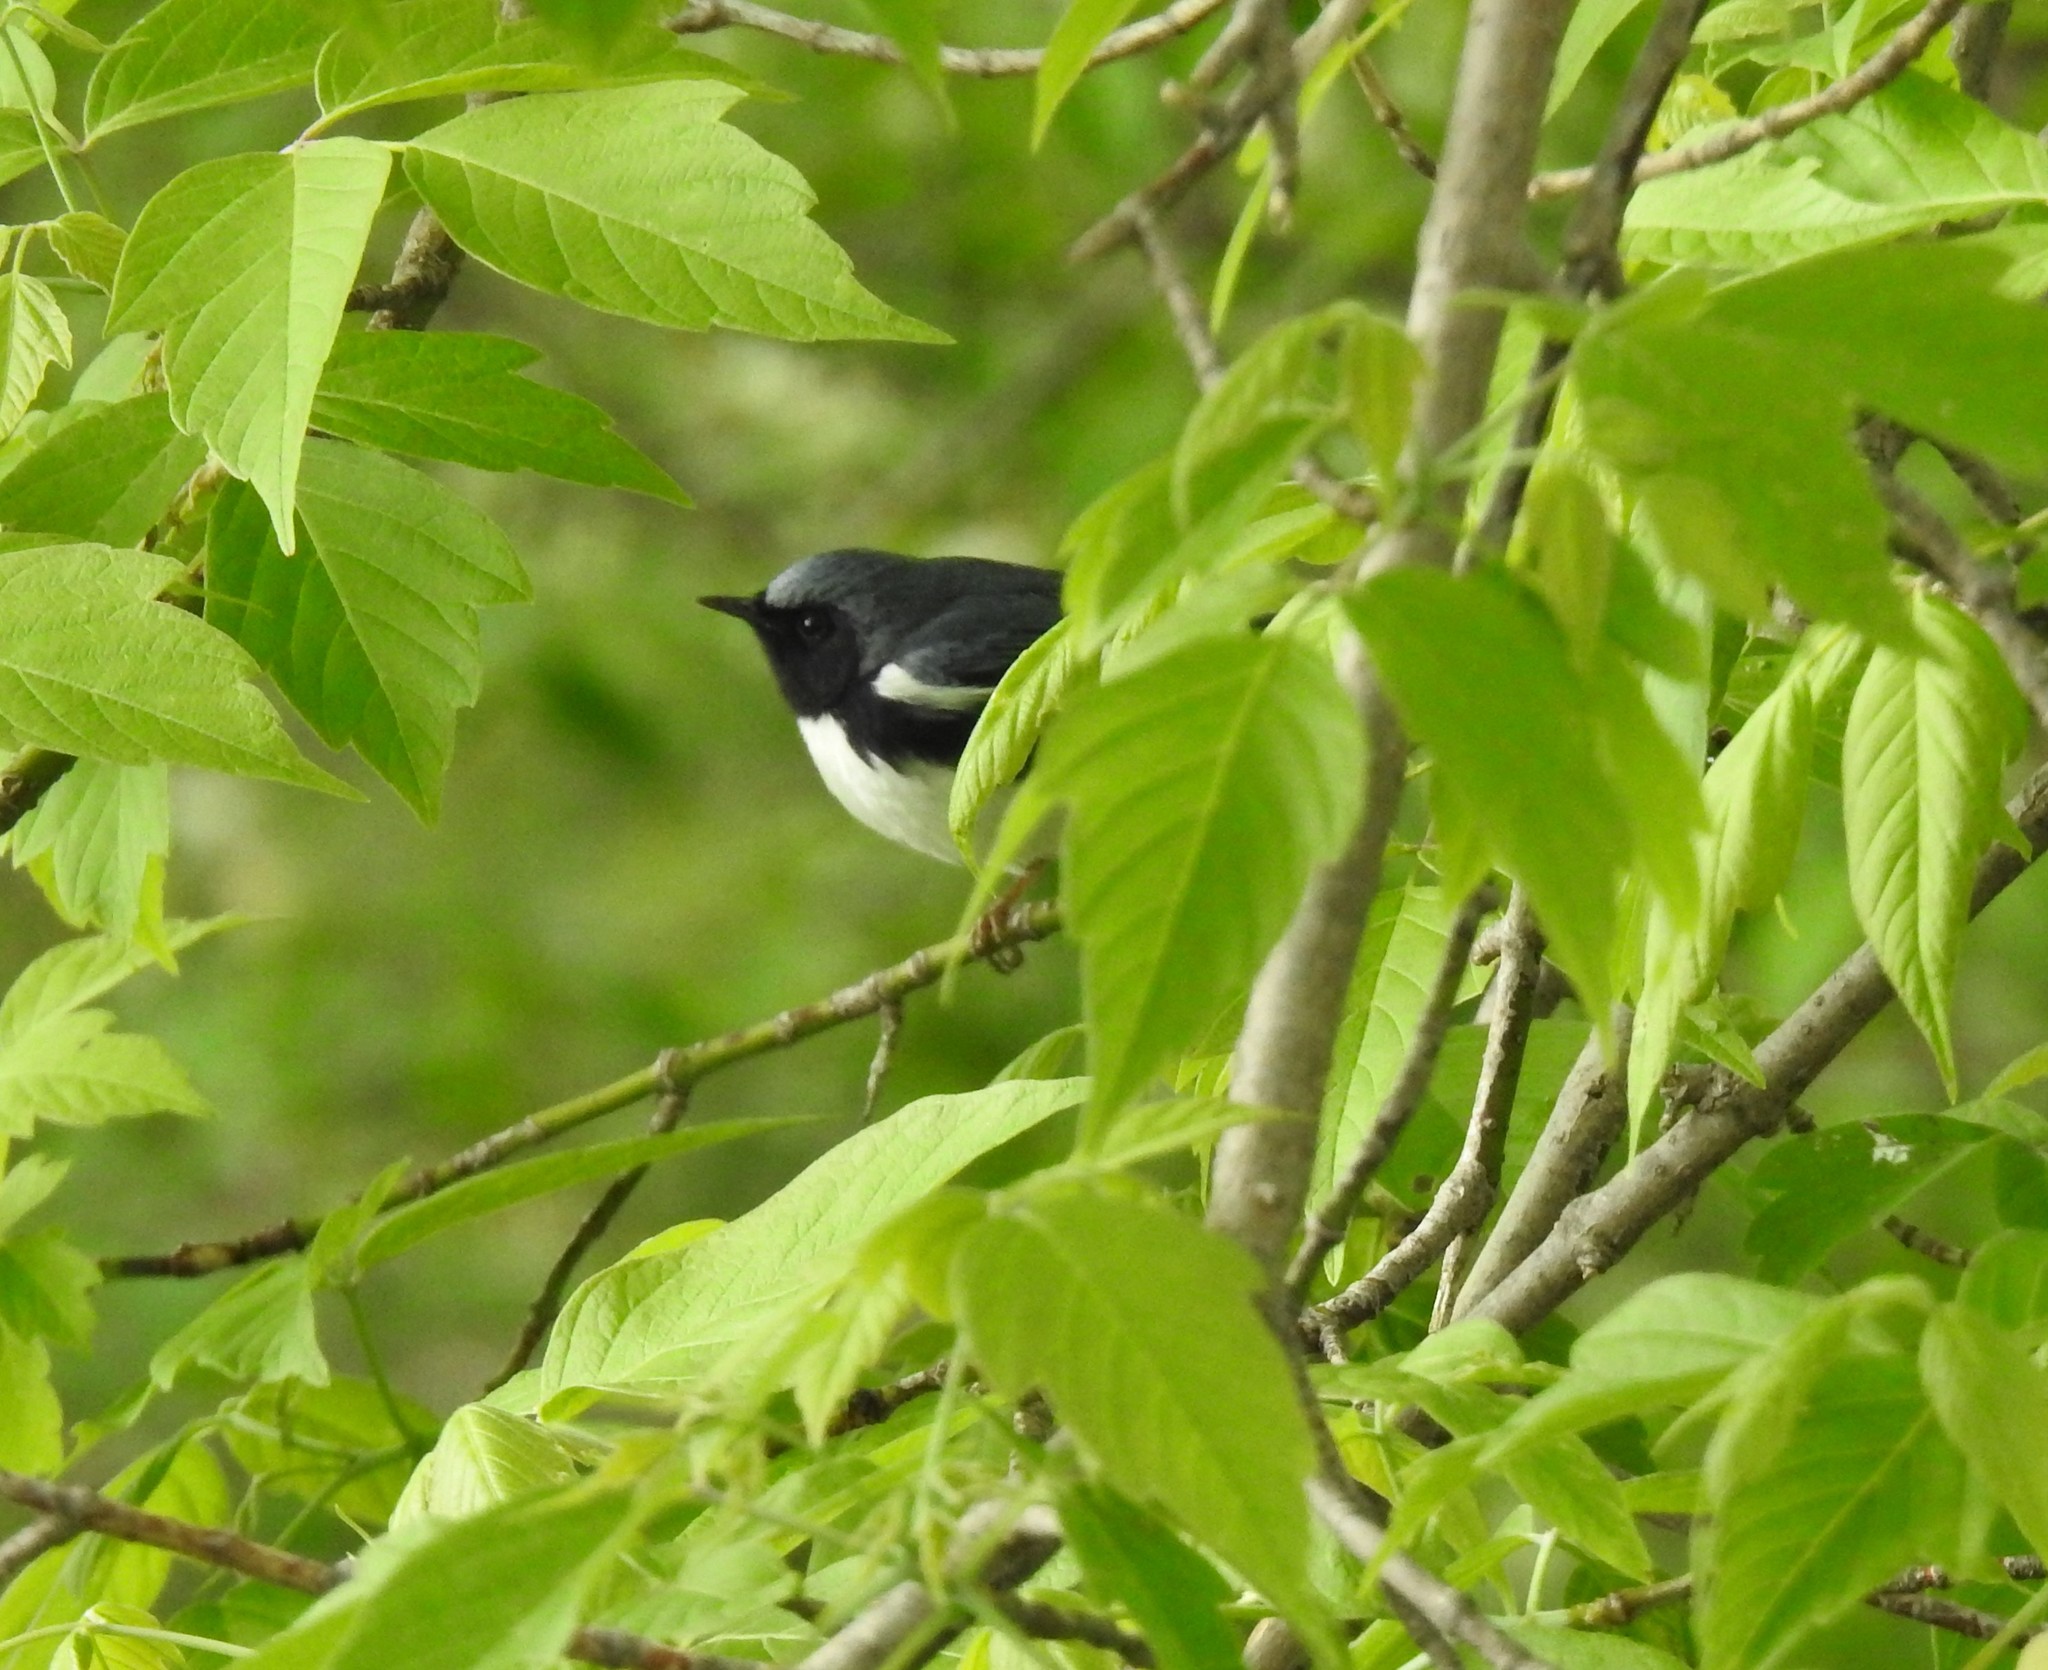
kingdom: Animalia
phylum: Chordata
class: Aves
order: Passeriformes
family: Parulidae
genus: Setophaga
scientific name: Setophaga caerulescens
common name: Black-throated blue warbler
